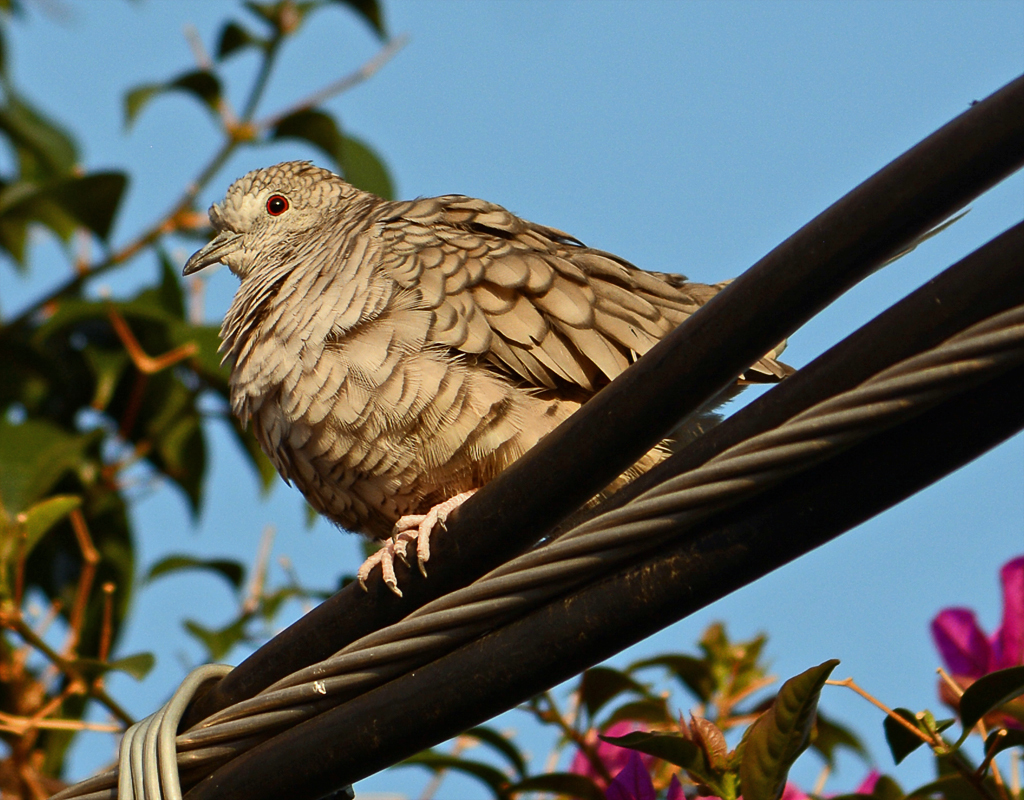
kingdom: Animalia
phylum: Chordata
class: Aves
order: Columbiformes
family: Columbidae
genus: Columbina
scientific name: Columbina inca
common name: Inca dove
